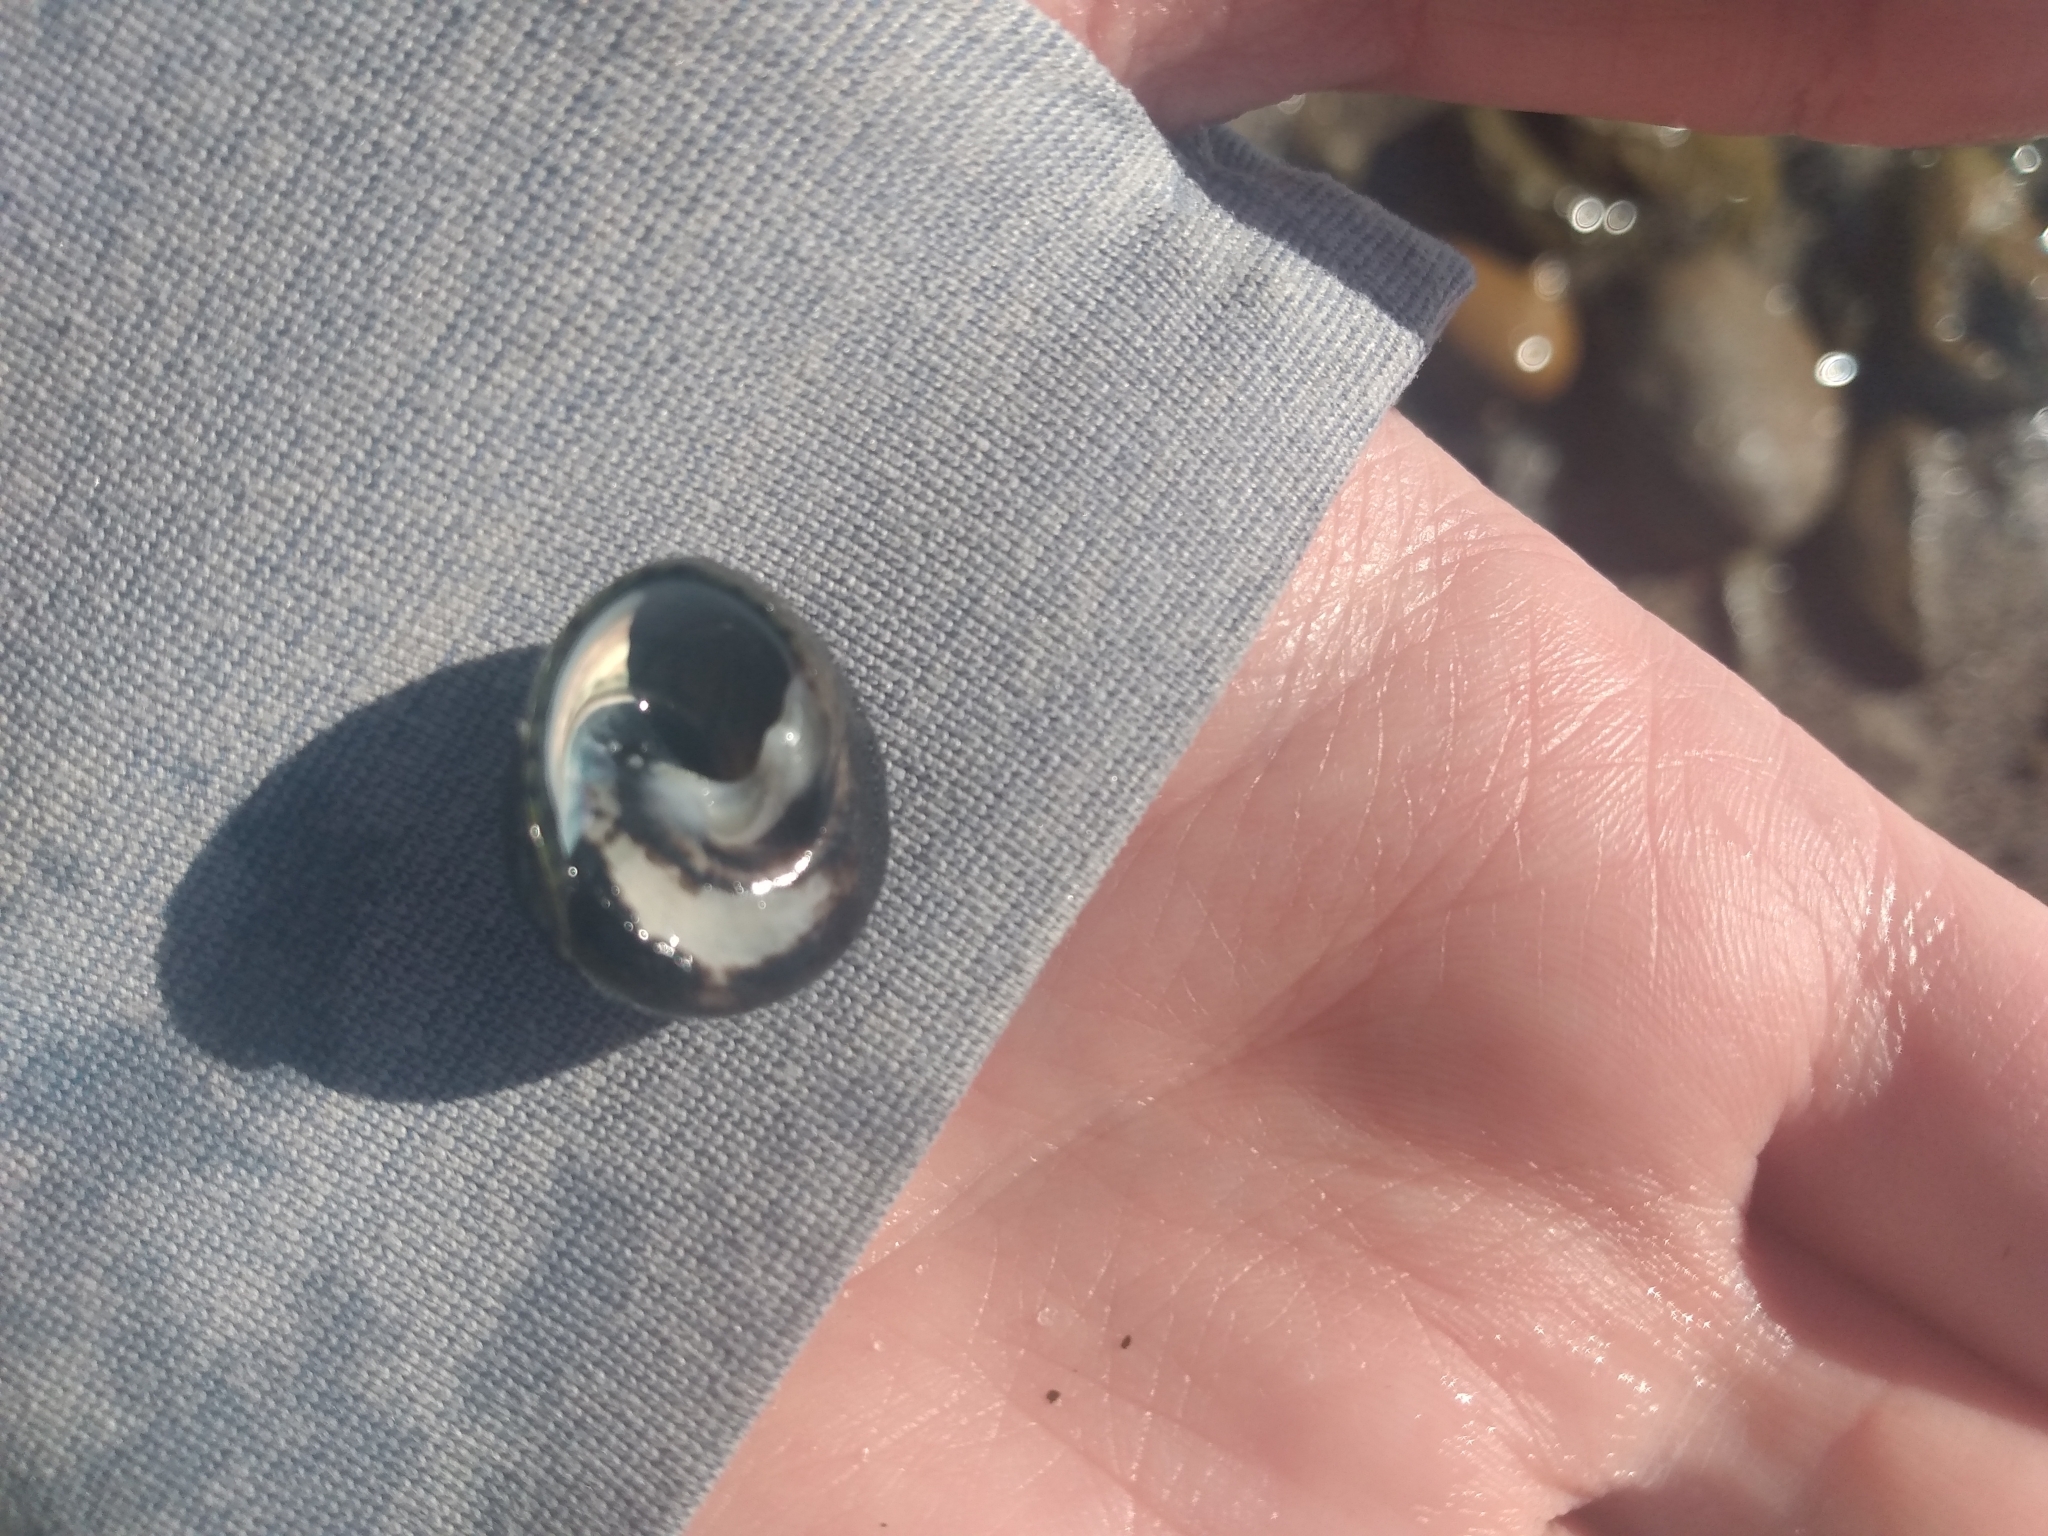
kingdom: Animalia
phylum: Mollusca
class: Gastropoda
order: Trochida
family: Tegulidae
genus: Tegula
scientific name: Tegula funebralis
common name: Black tegula
